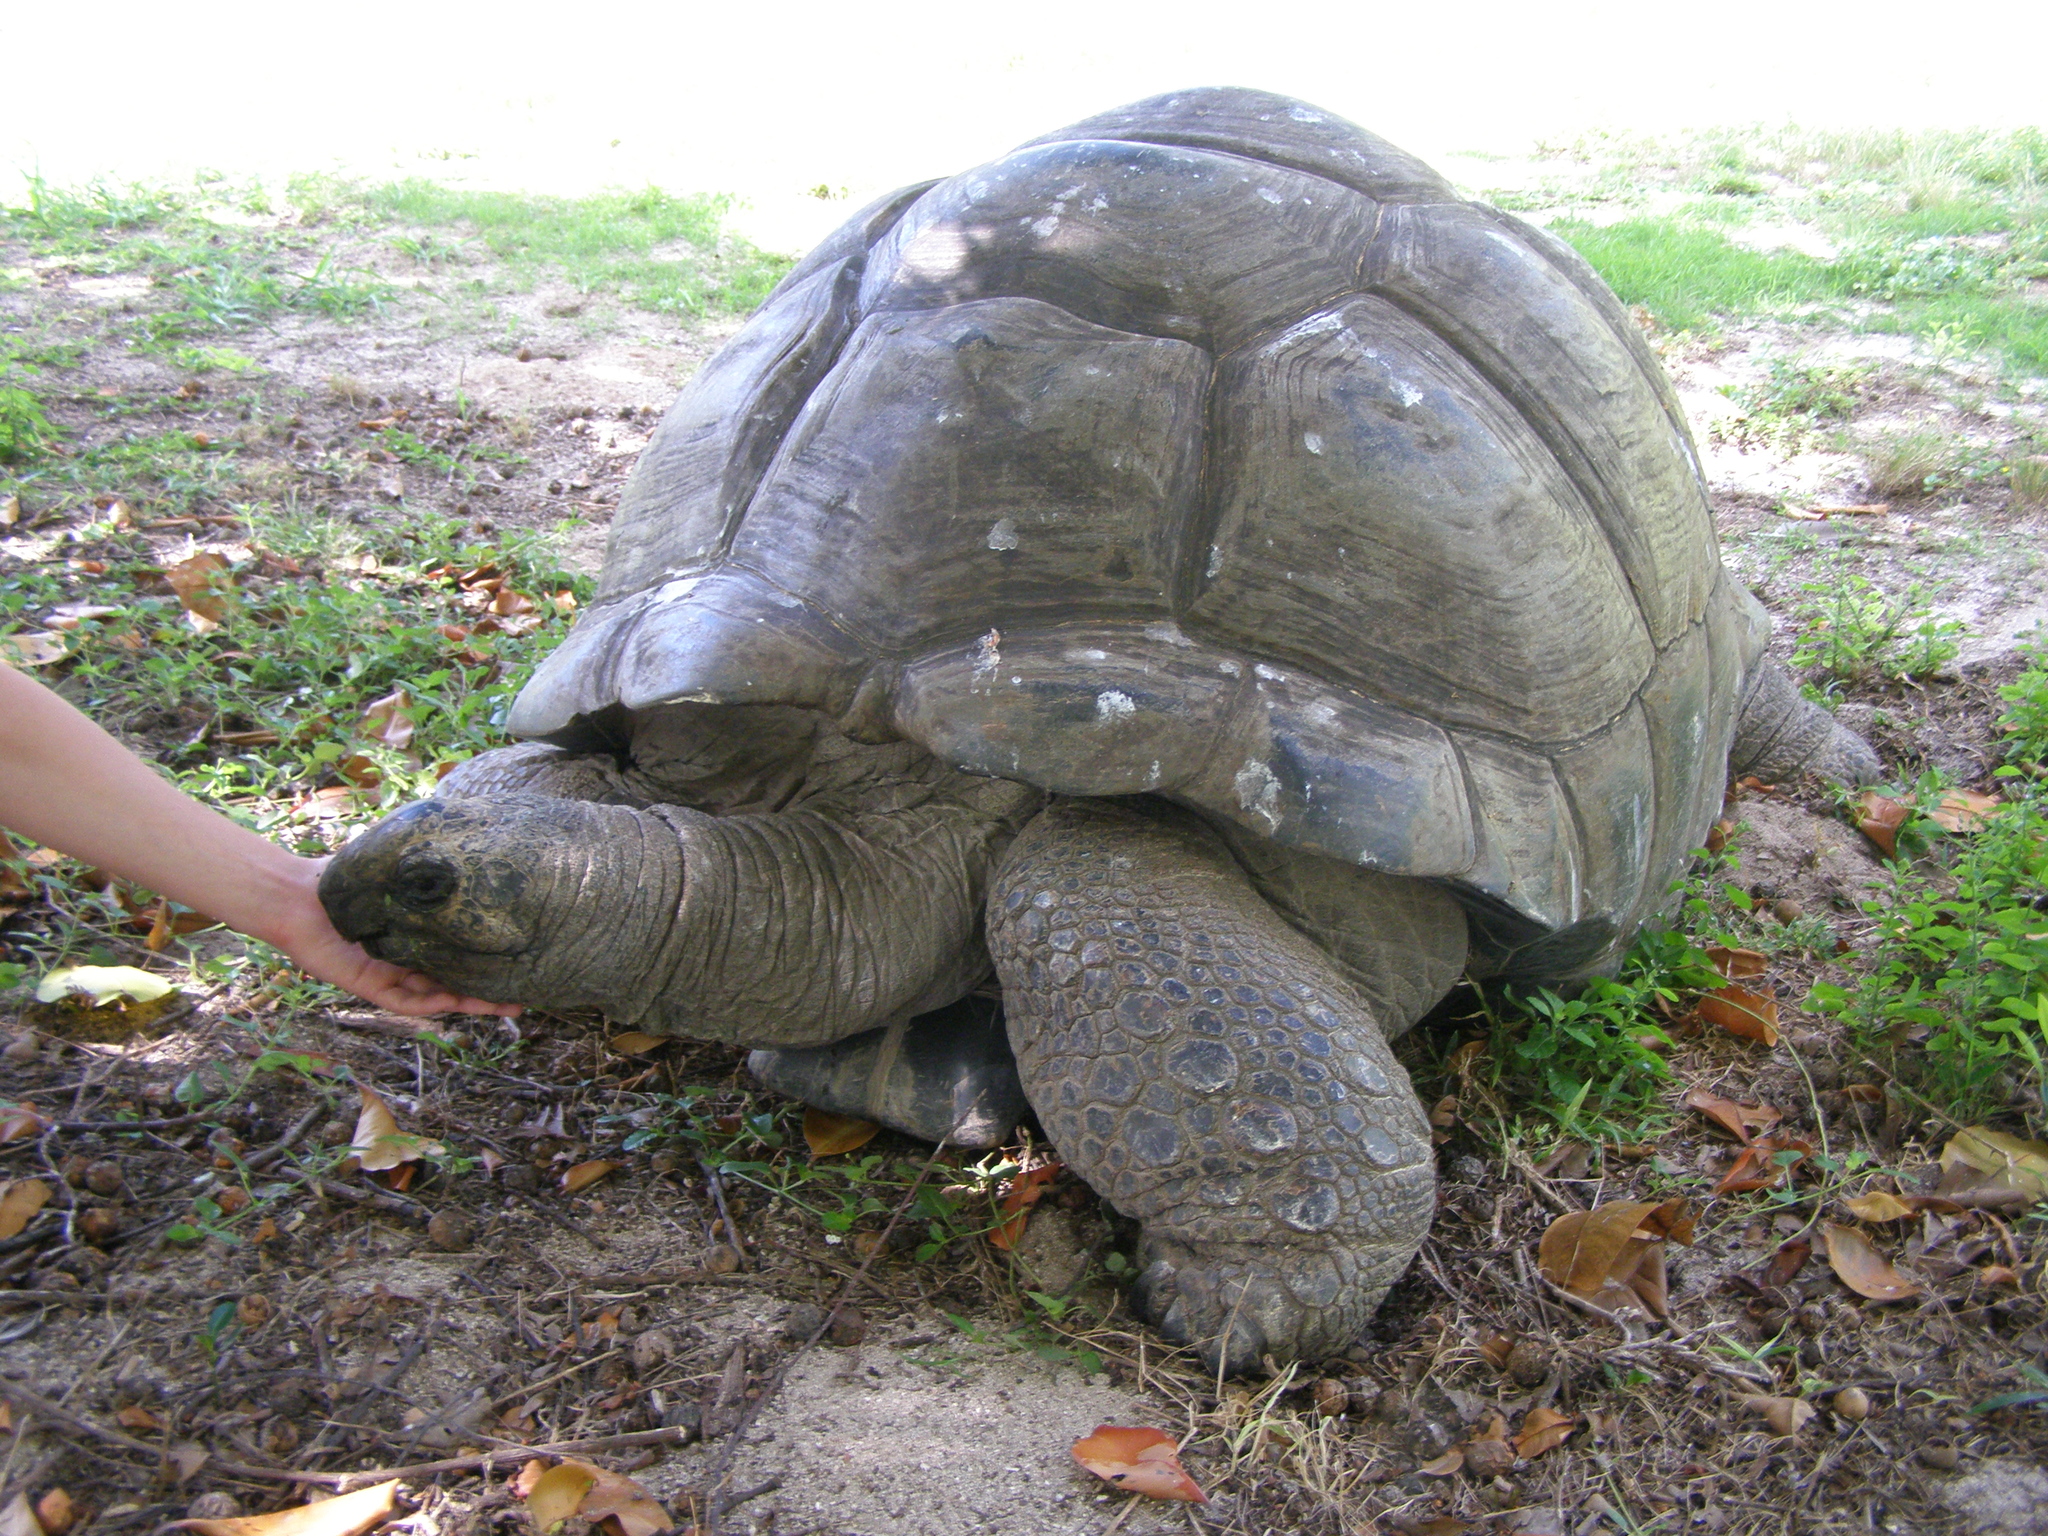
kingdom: Animalia
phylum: Chordata
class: Testudines
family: Testudinidae
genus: Aldabrachelys
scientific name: Aldabrachelys gigantea
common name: Aldabra giant tortoise
